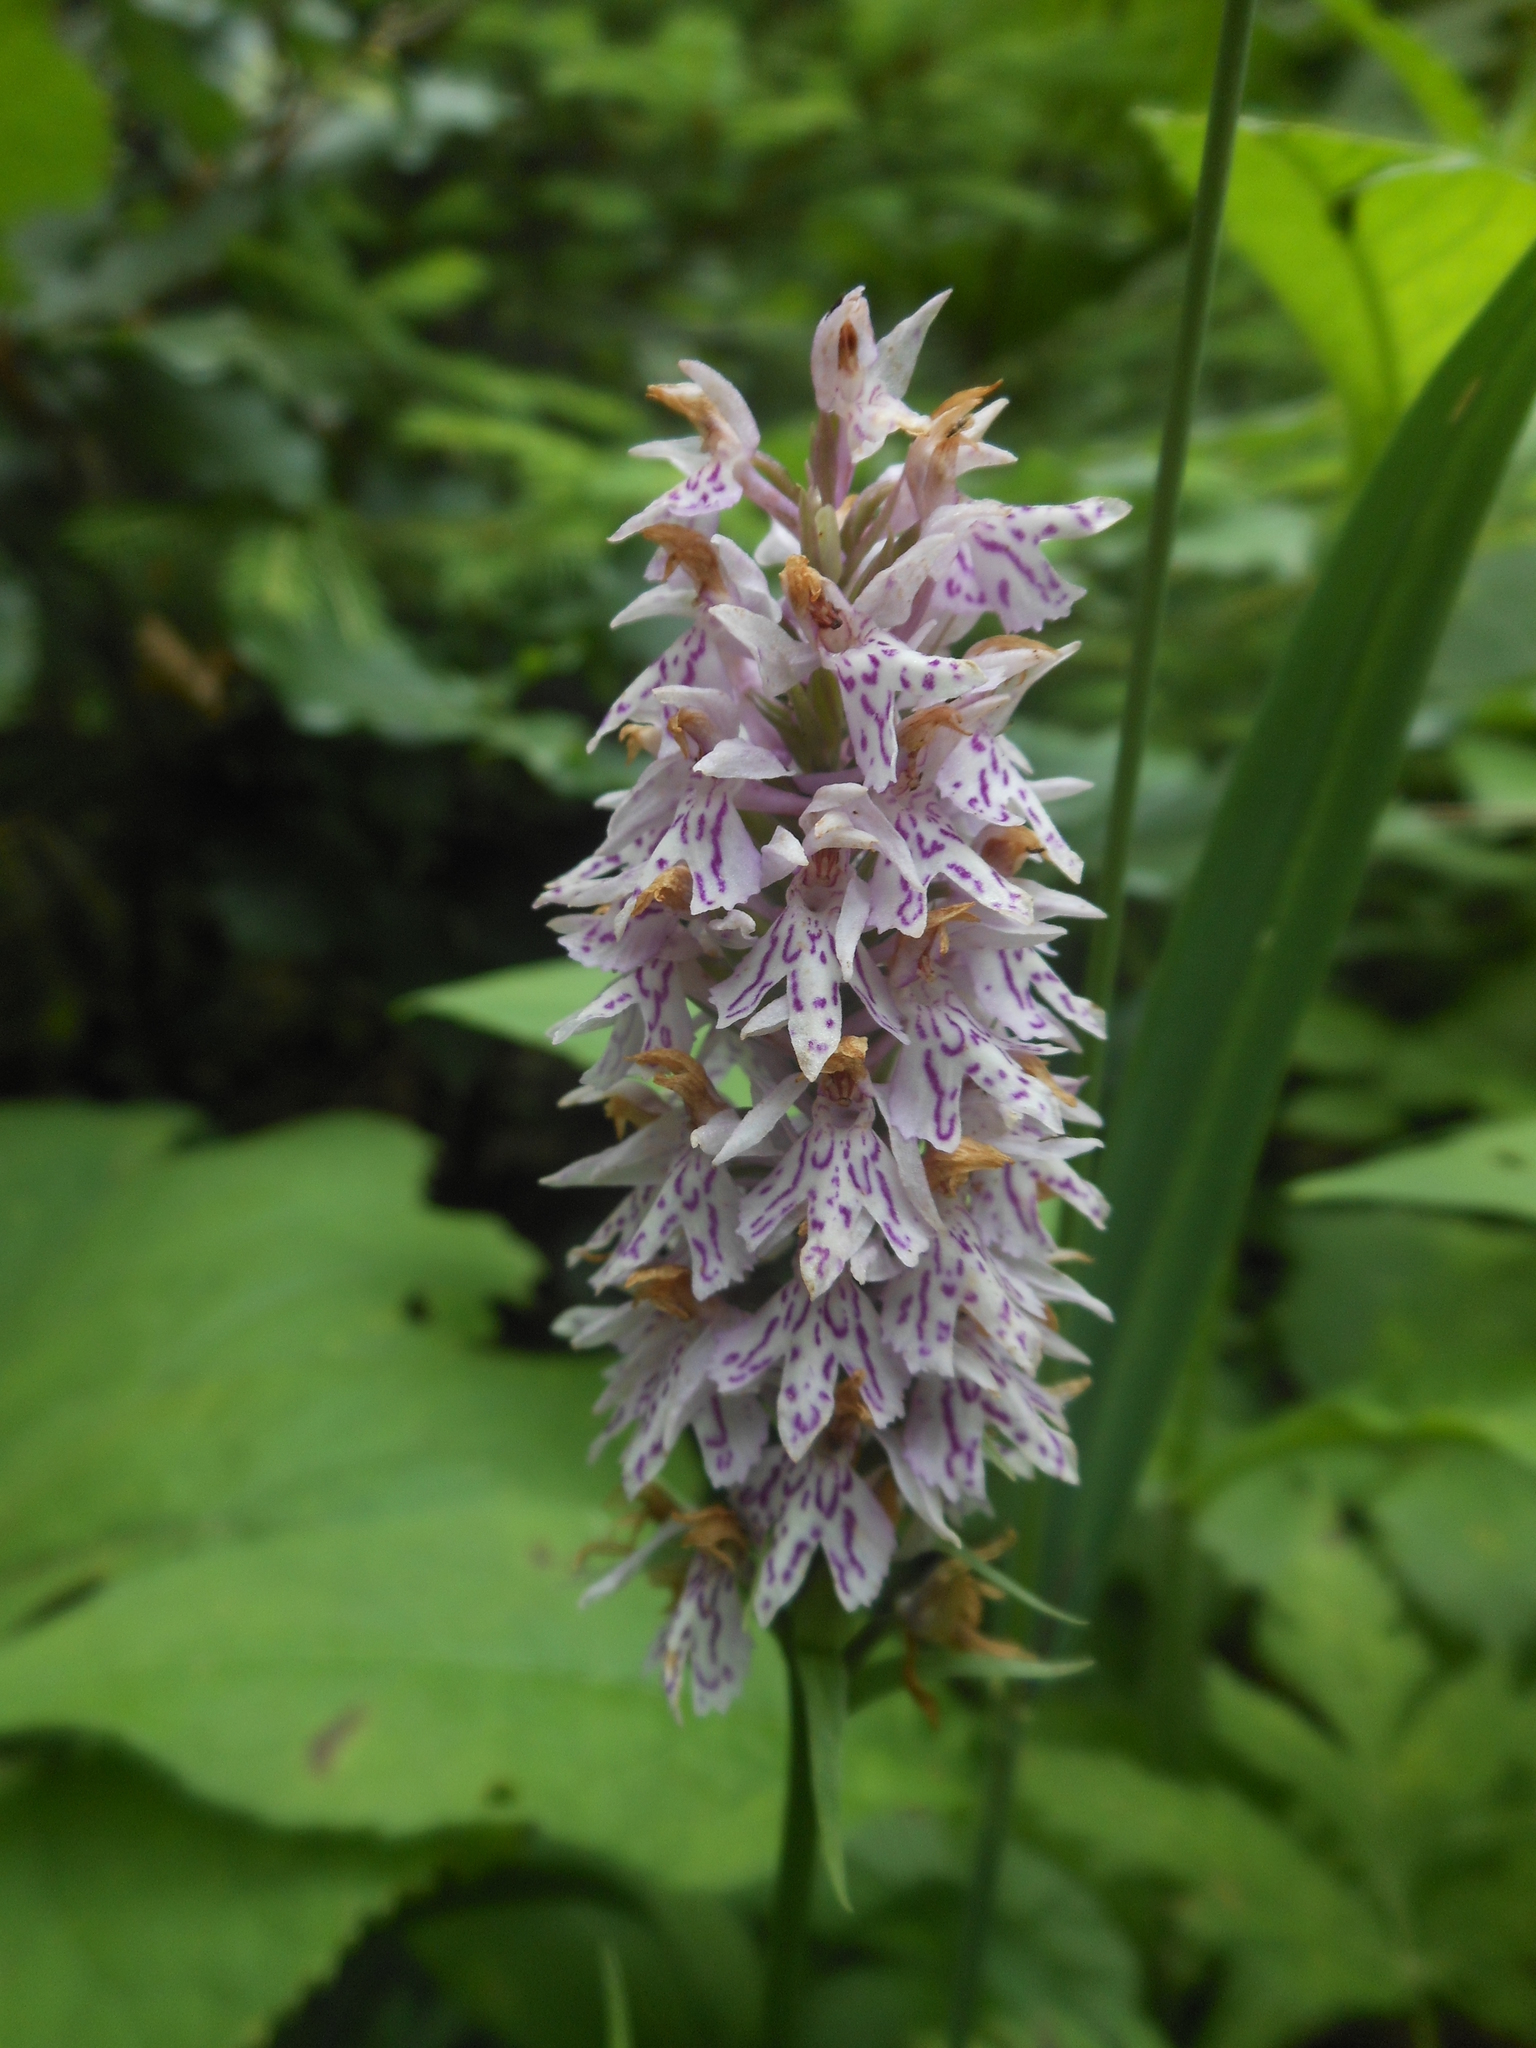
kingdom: Plantae
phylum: Tracheophyta
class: Liliopsida
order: Asparagales
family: Orchidaceae
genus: Dactylorhiza
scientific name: Dactylorhiza maculata
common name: Heath spotted-orchid
